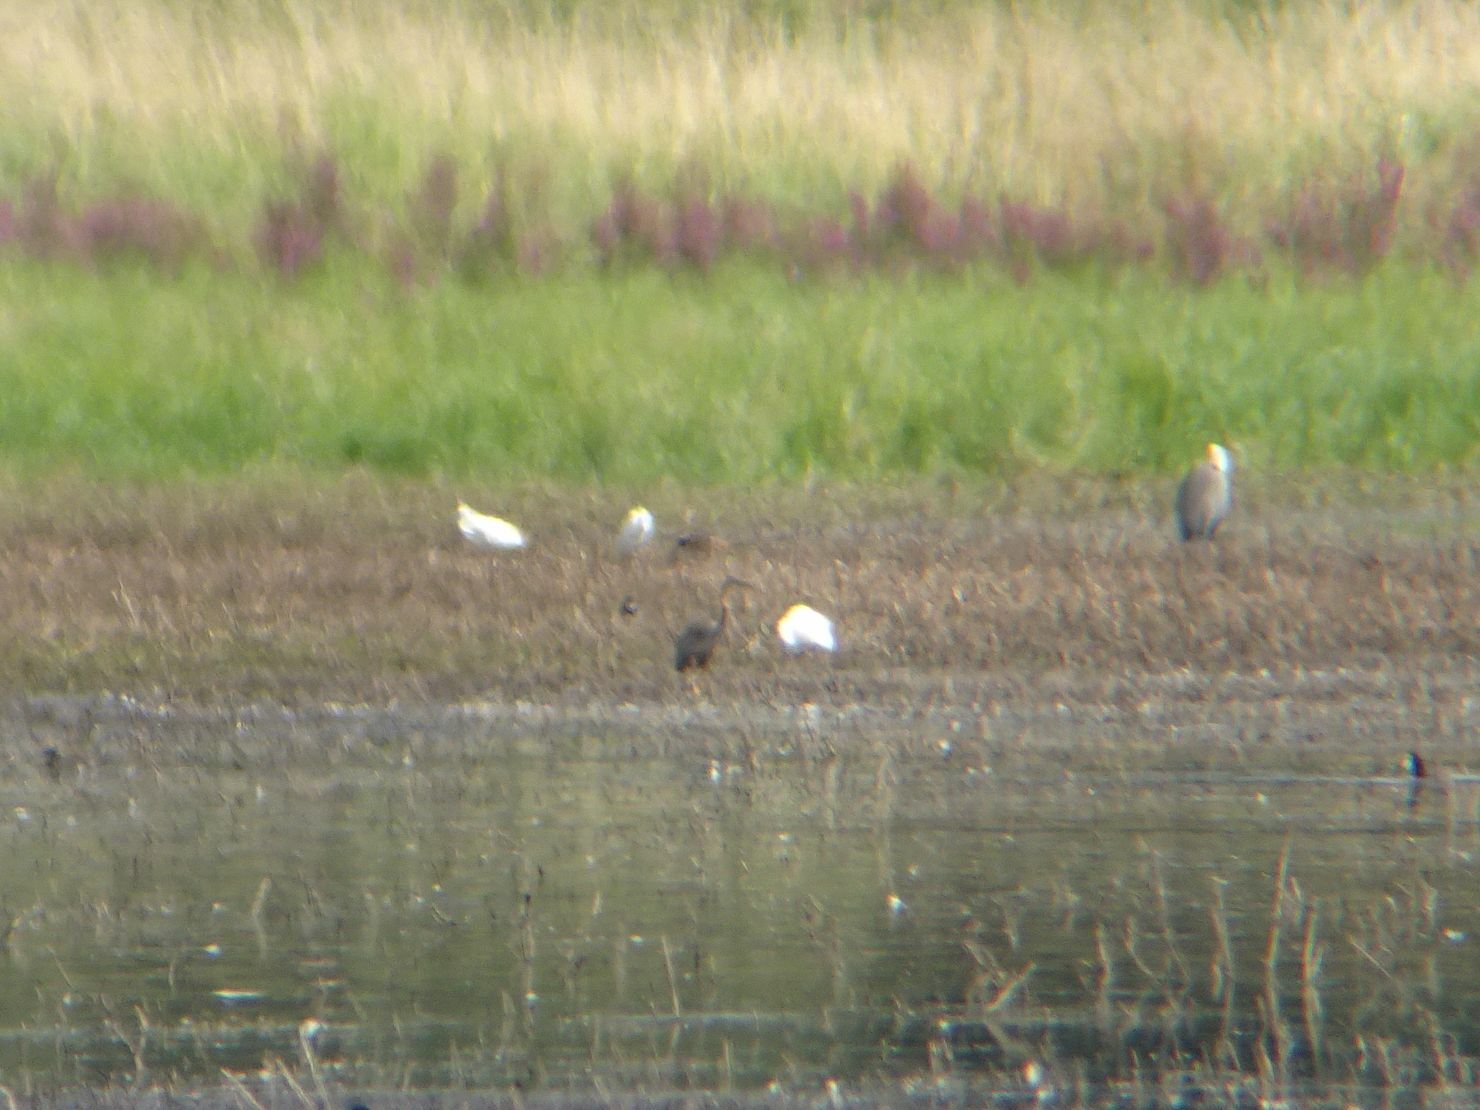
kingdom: Animalia
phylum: Chordata
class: Aves
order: Pelecaniformes
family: Ardeidae
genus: Ardea
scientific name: Ardea purpurea
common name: Purple heron
